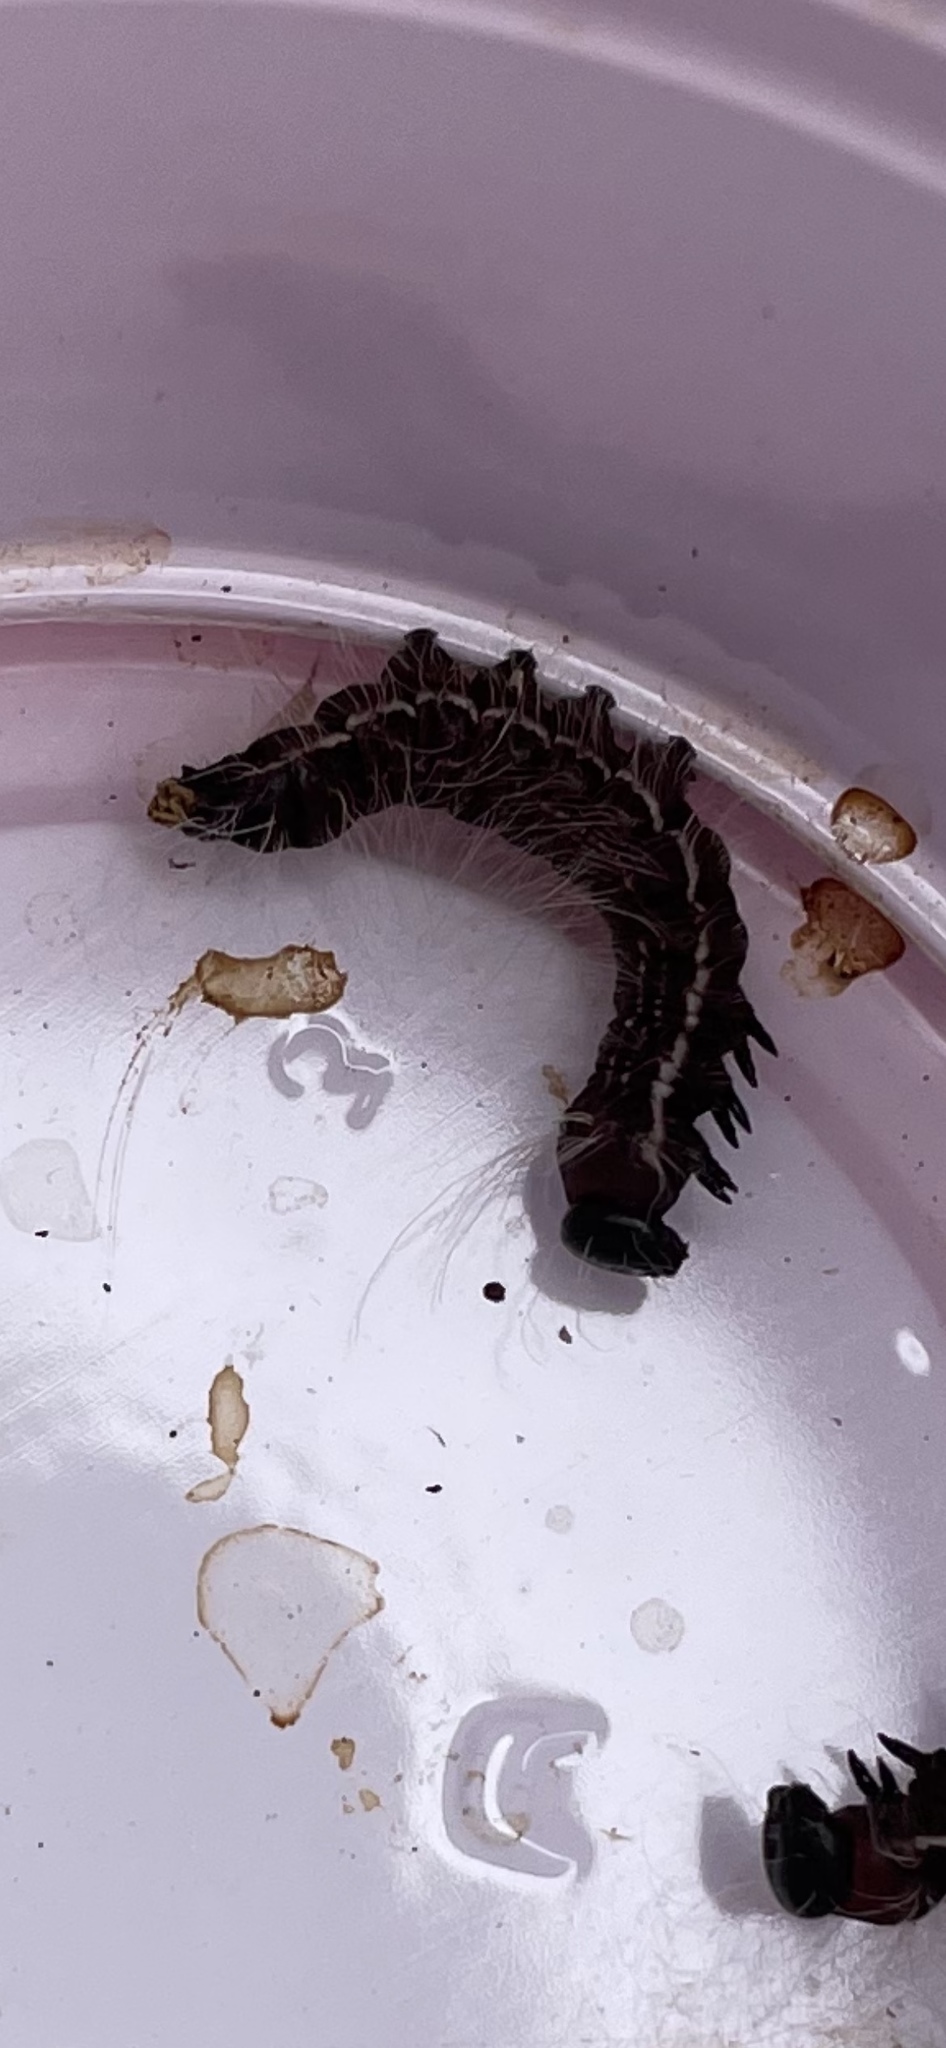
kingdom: Animalia
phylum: Arthropoda
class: Insecta
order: Lepidoptera
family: Notodontidae
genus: Datana
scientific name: Datana integerrima
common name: Walnut caterpillar
